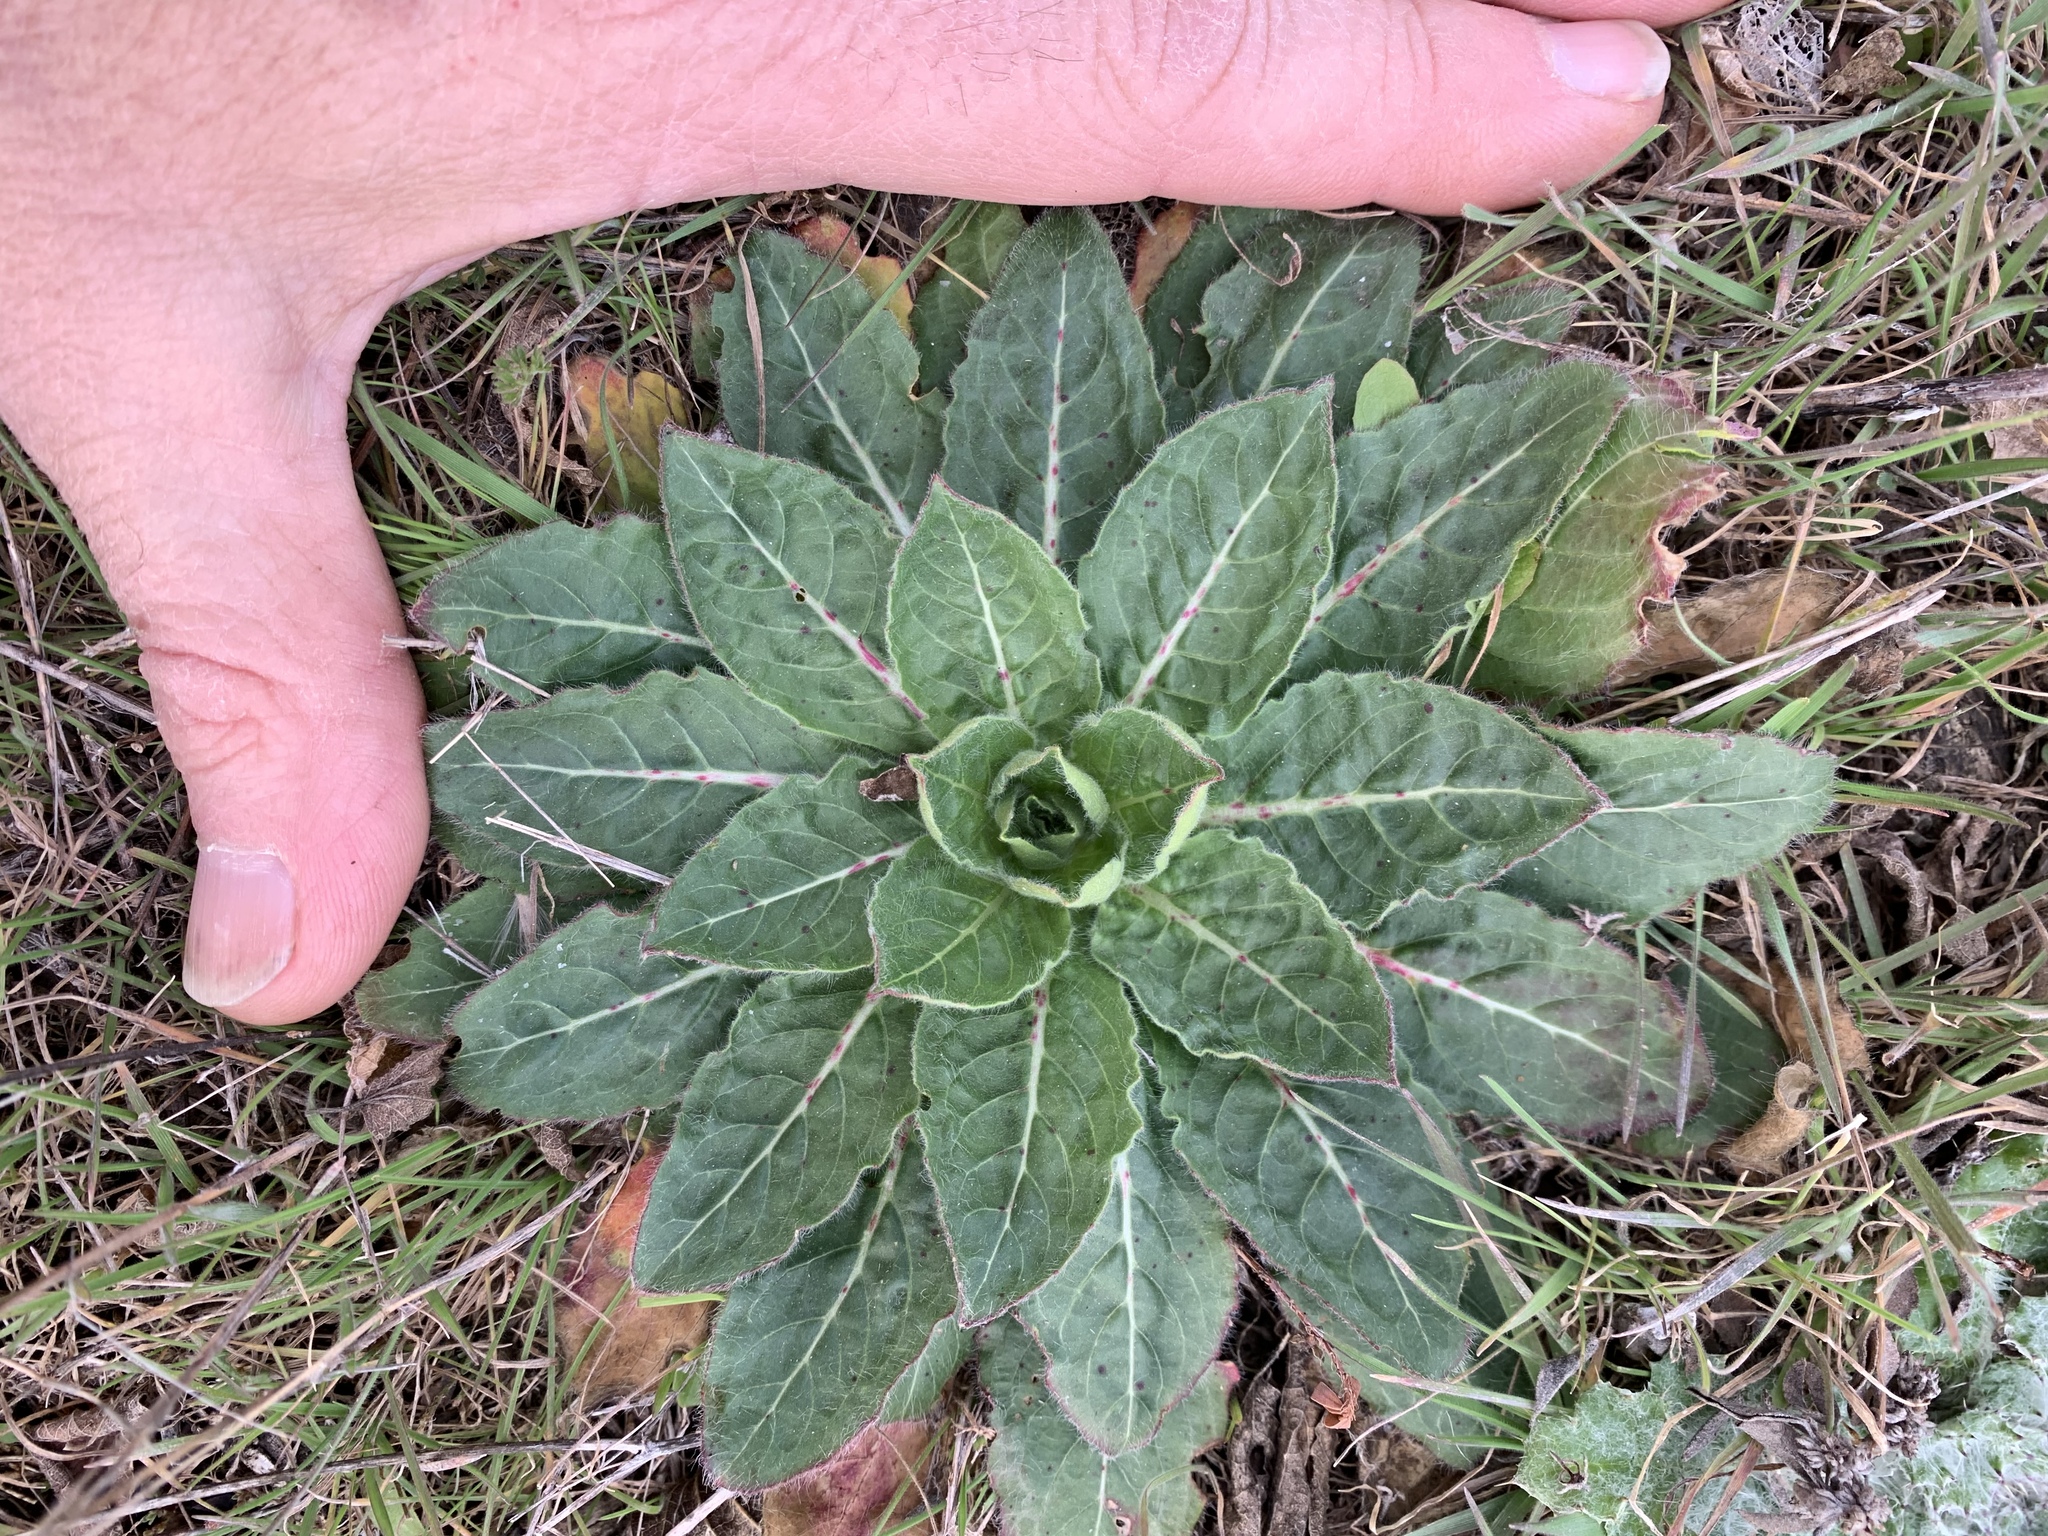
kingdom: Plantae
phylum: Tracheophyta
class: Magnoliopsida
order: Myrtales
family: Onagraceae
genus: Oenothera
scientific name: Oenothera curtiflora
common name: Velvetweed
